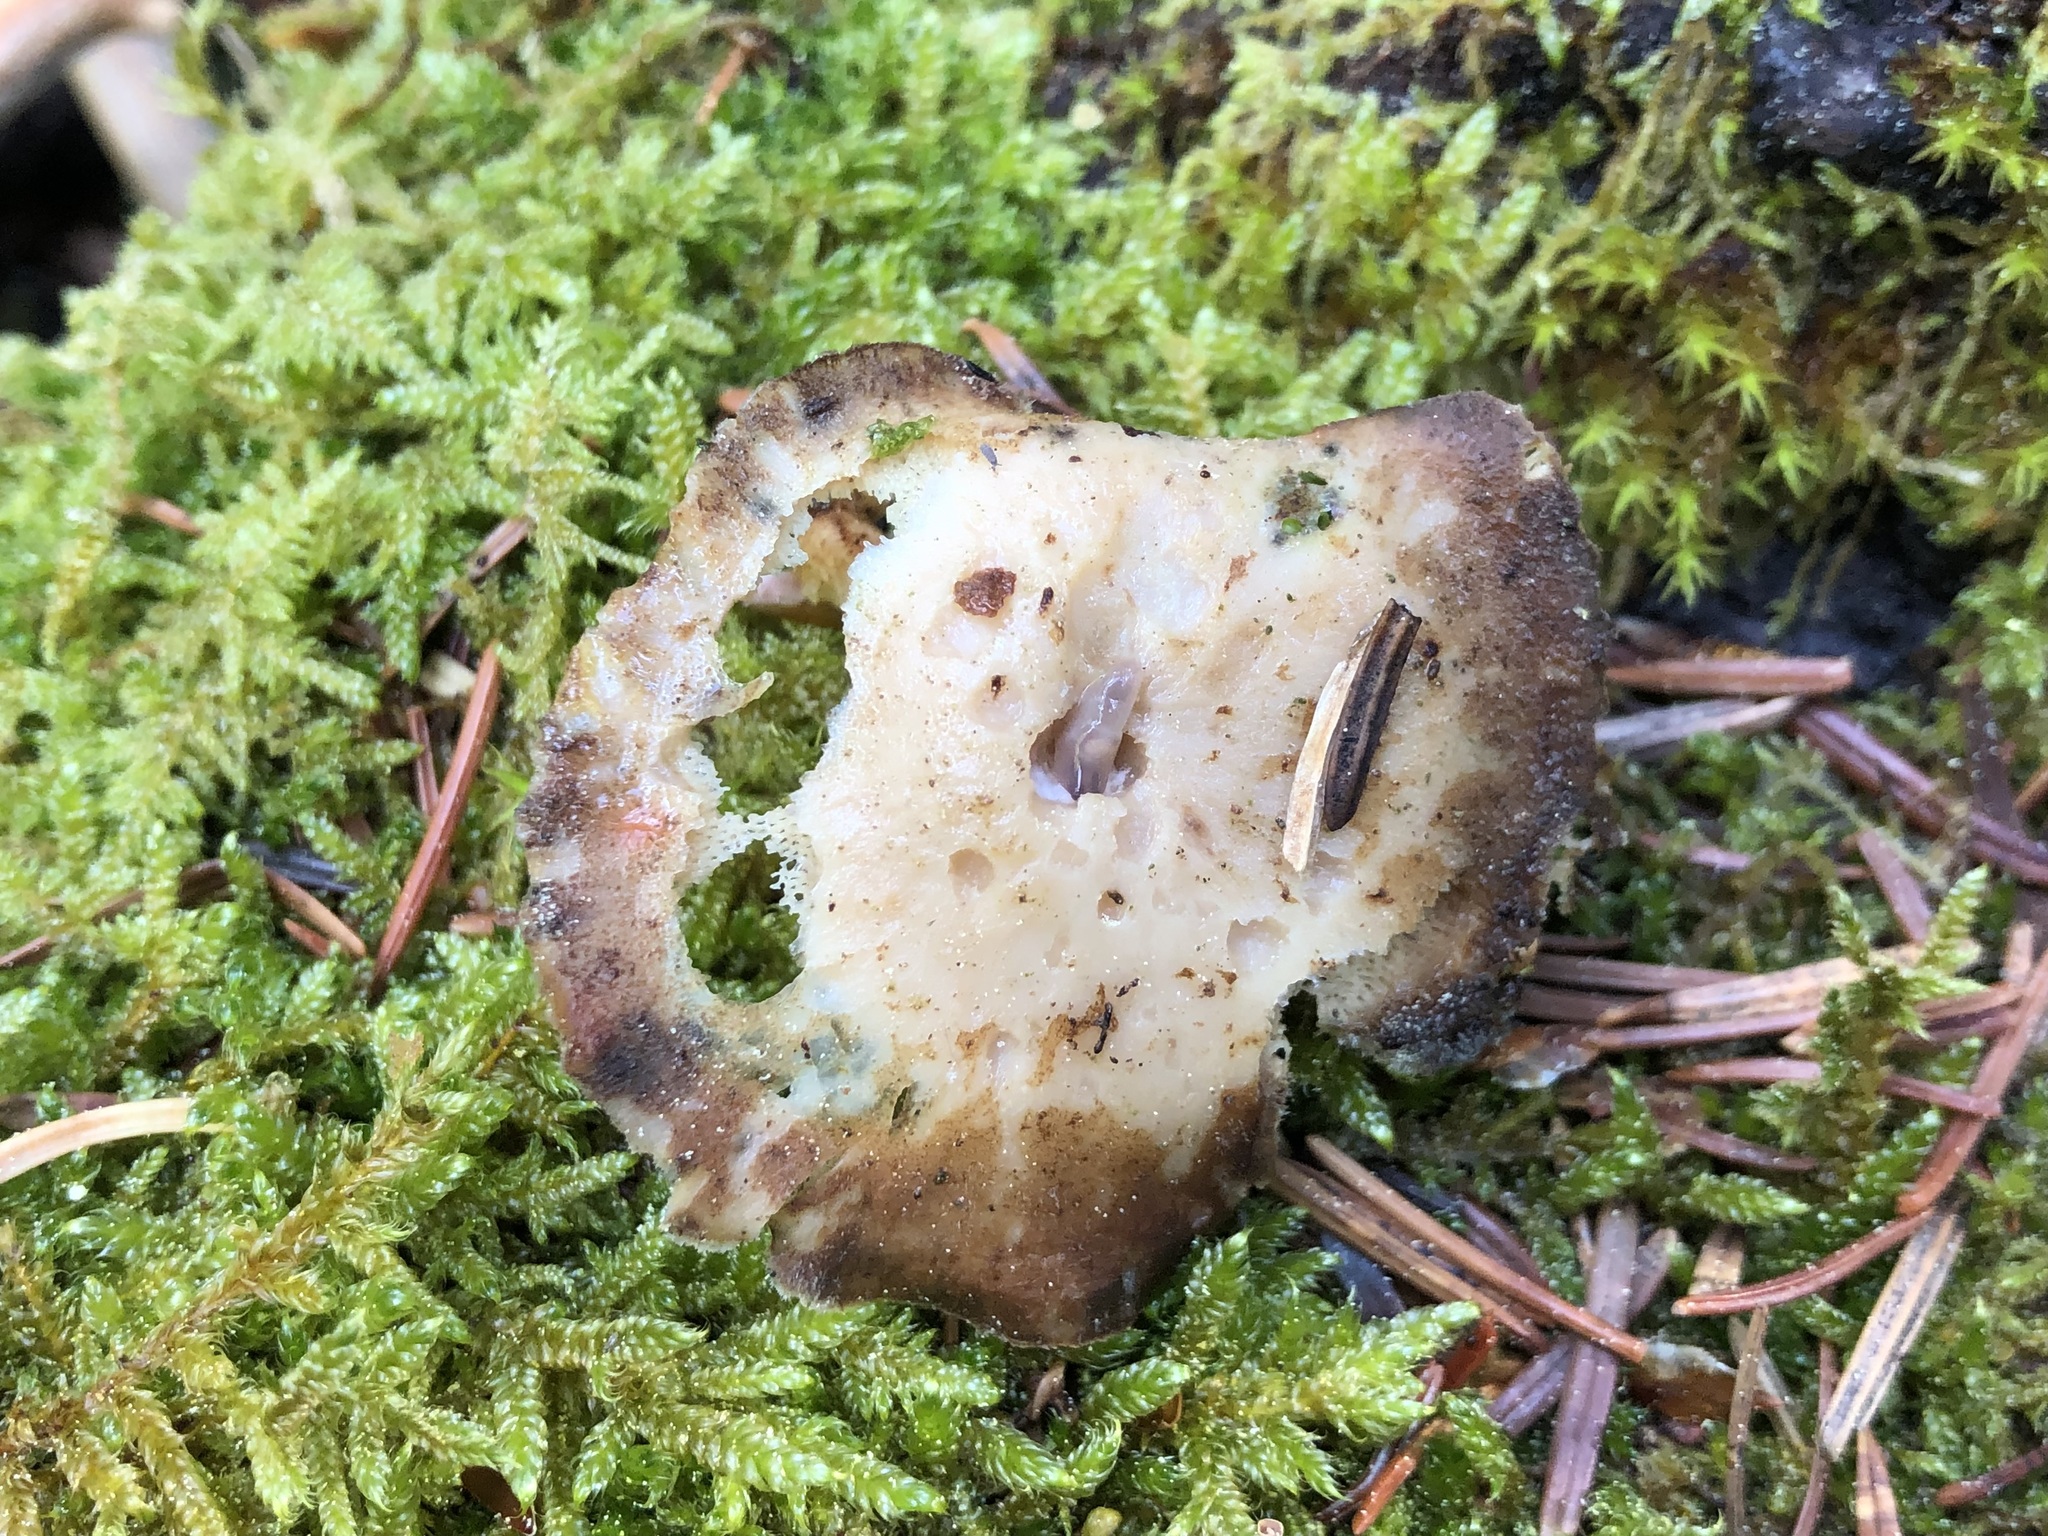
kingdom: Fungi
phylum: Basidiomycota
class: Agaricomycetes
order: Polyporales
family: Polyporaceae
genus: Lentinus
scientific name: Lentinus brumalis
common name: Winter polypore
